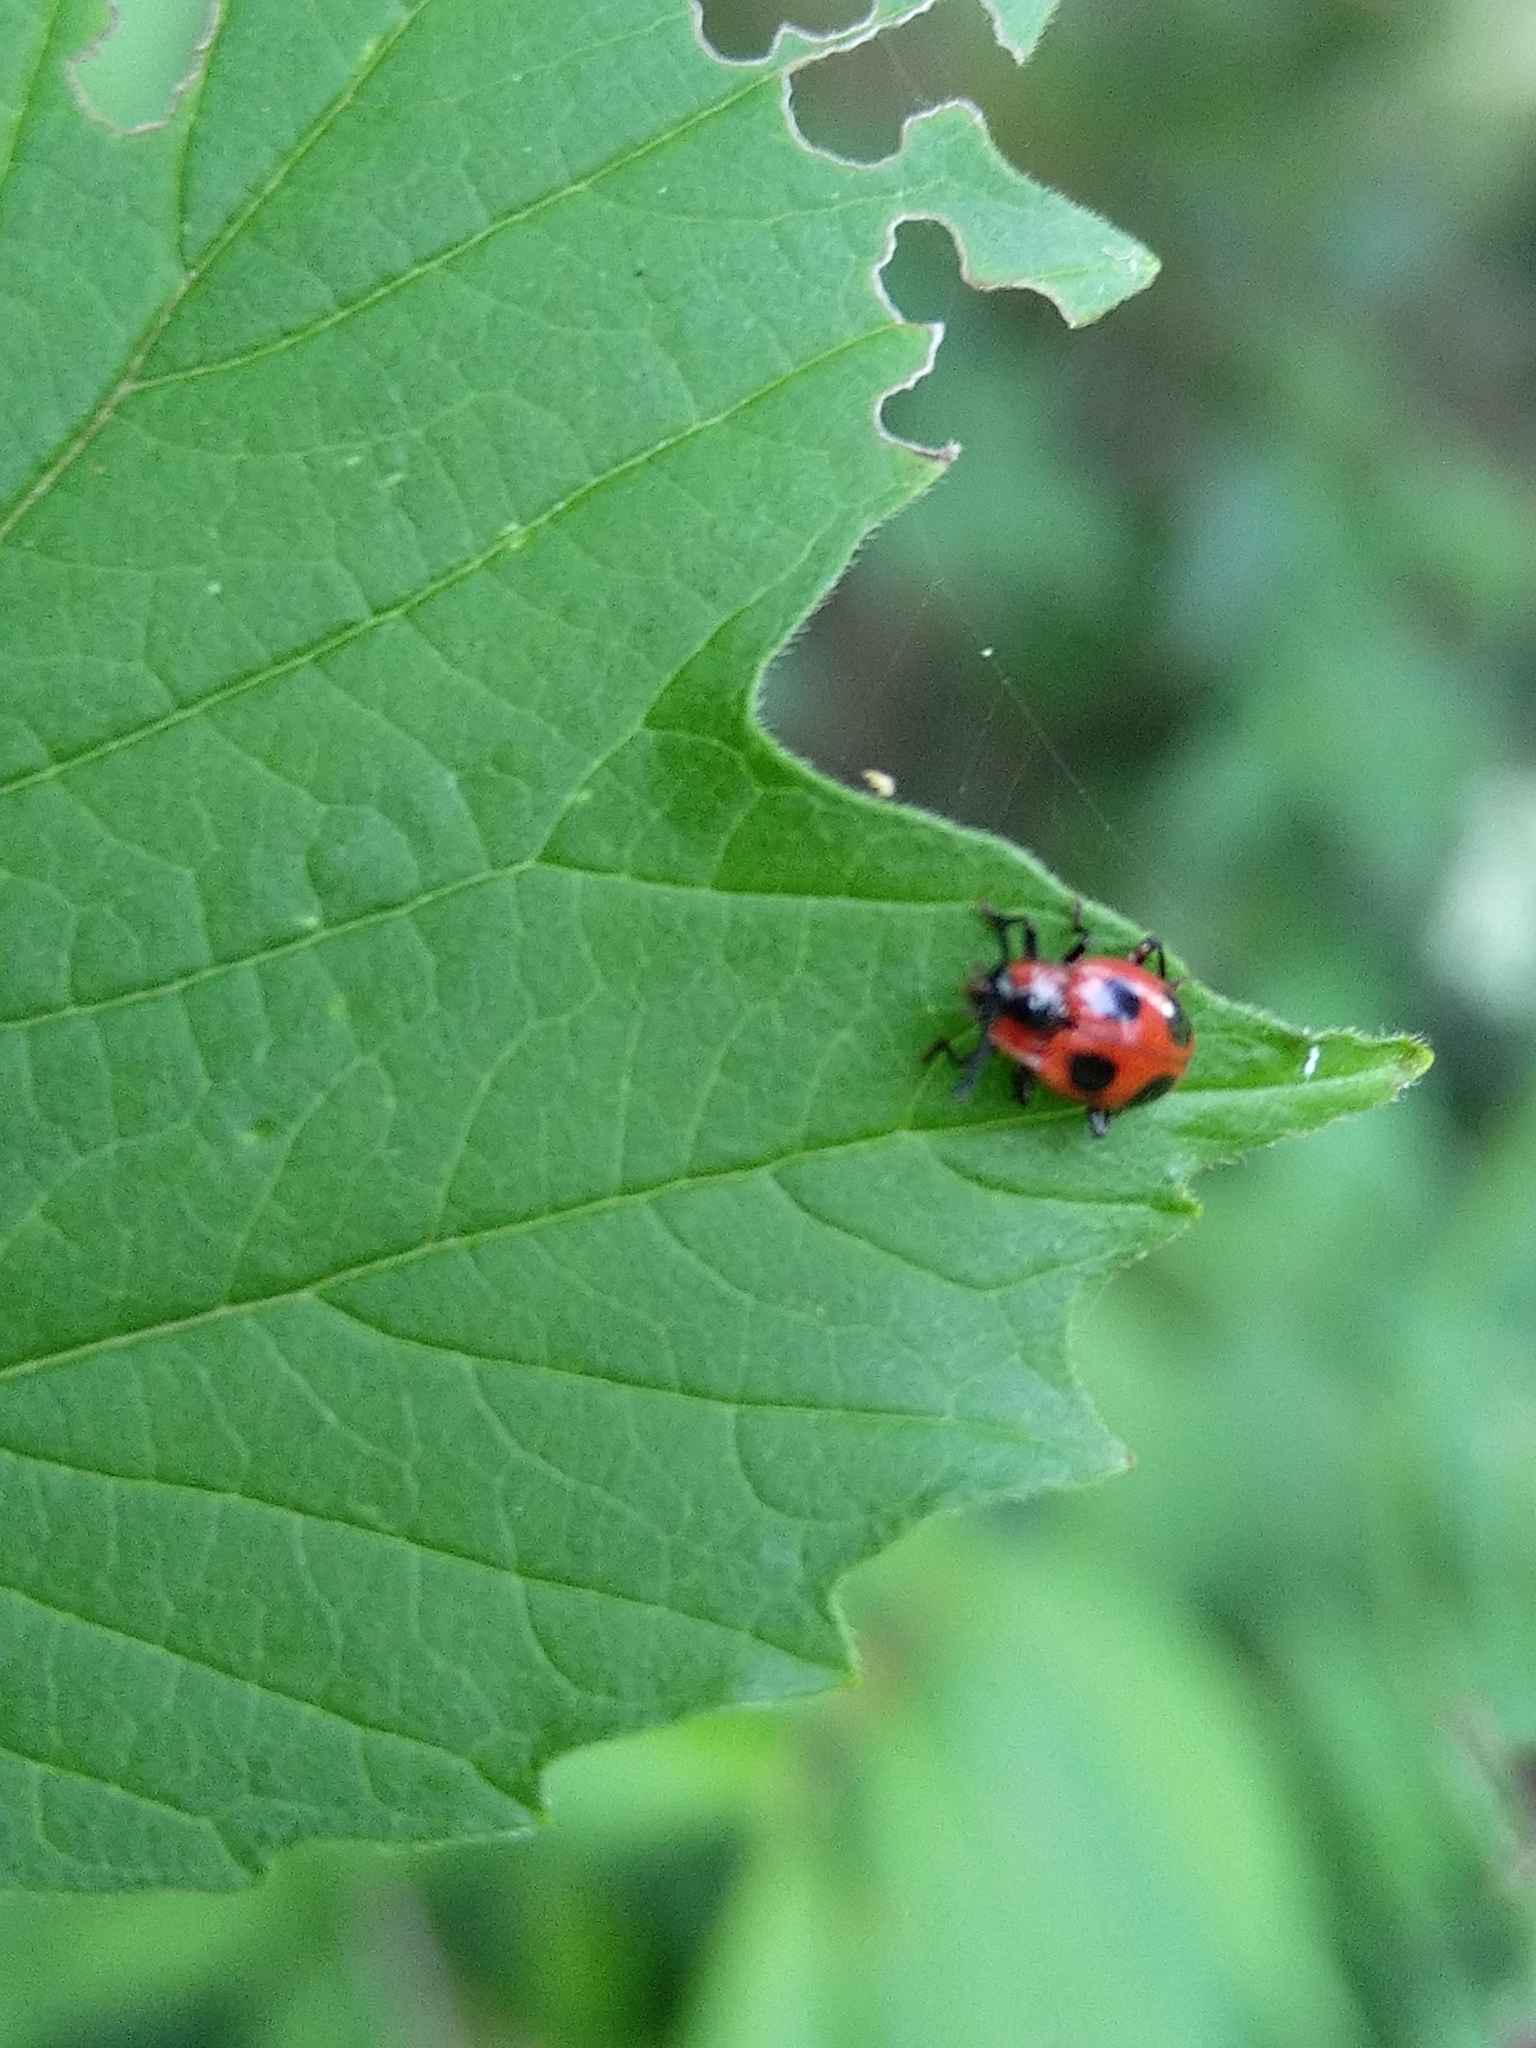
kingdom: Animalia
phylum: Arthropoda
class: Insecta
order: Coleoptera
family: Endomychidae
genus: Endomychus
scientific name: Endomychus coccineus
